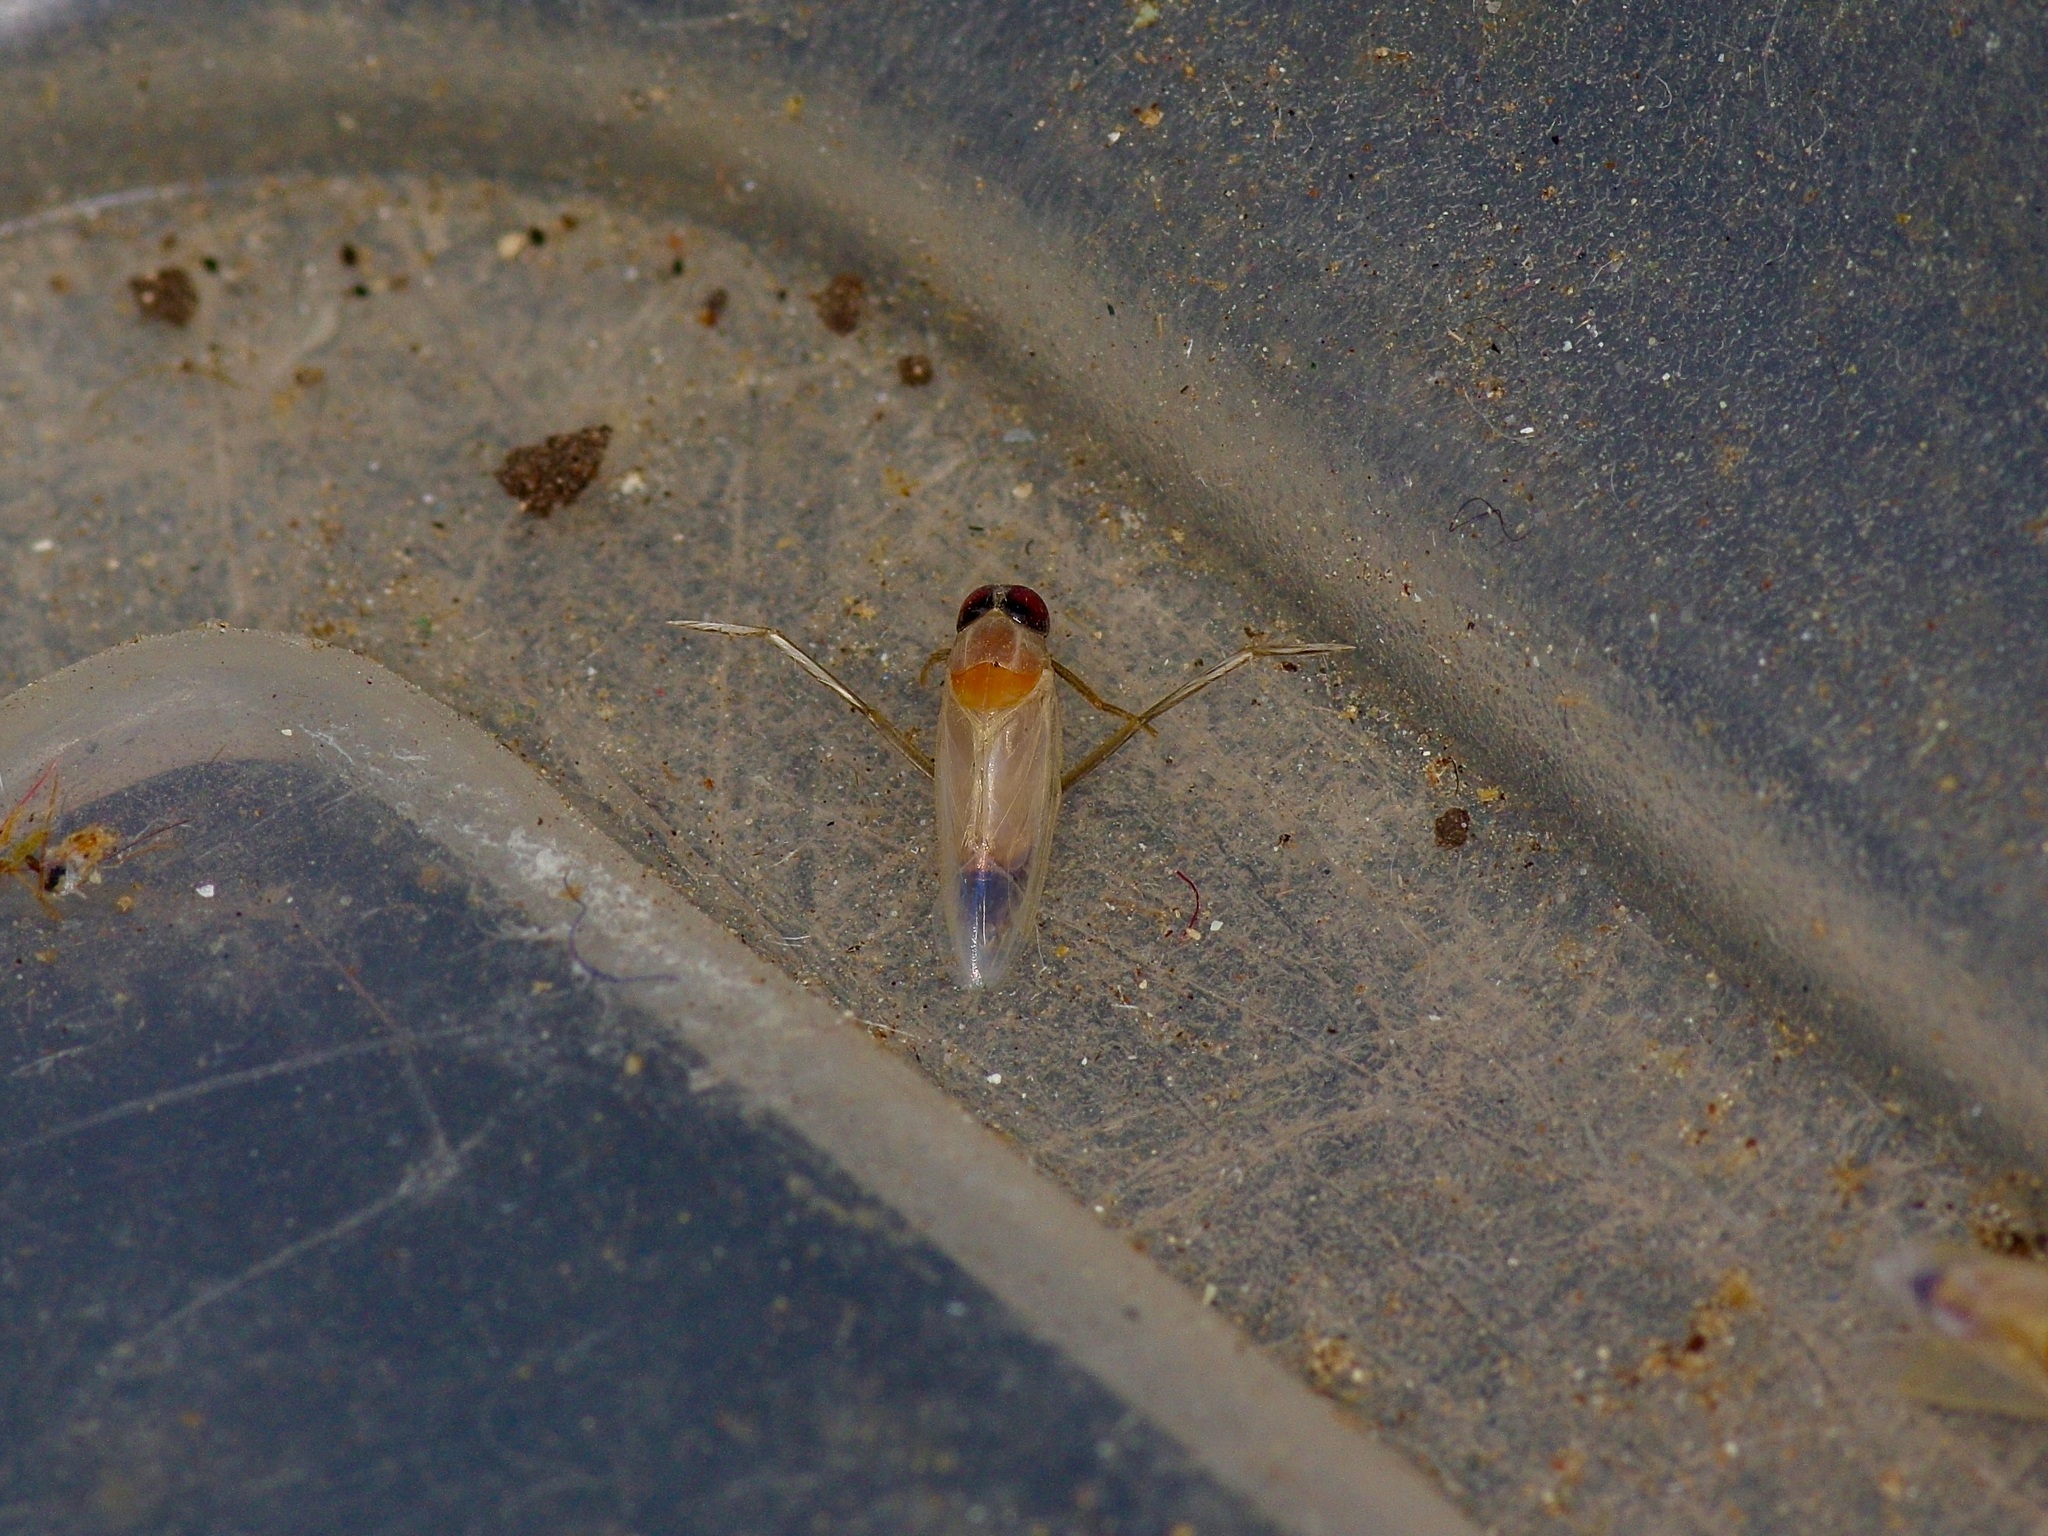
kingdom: Animalia
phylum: Arthropoda
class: Insecta
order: Hemiptera
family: Notonectidae
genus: Buenoa
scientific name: Buenoa
